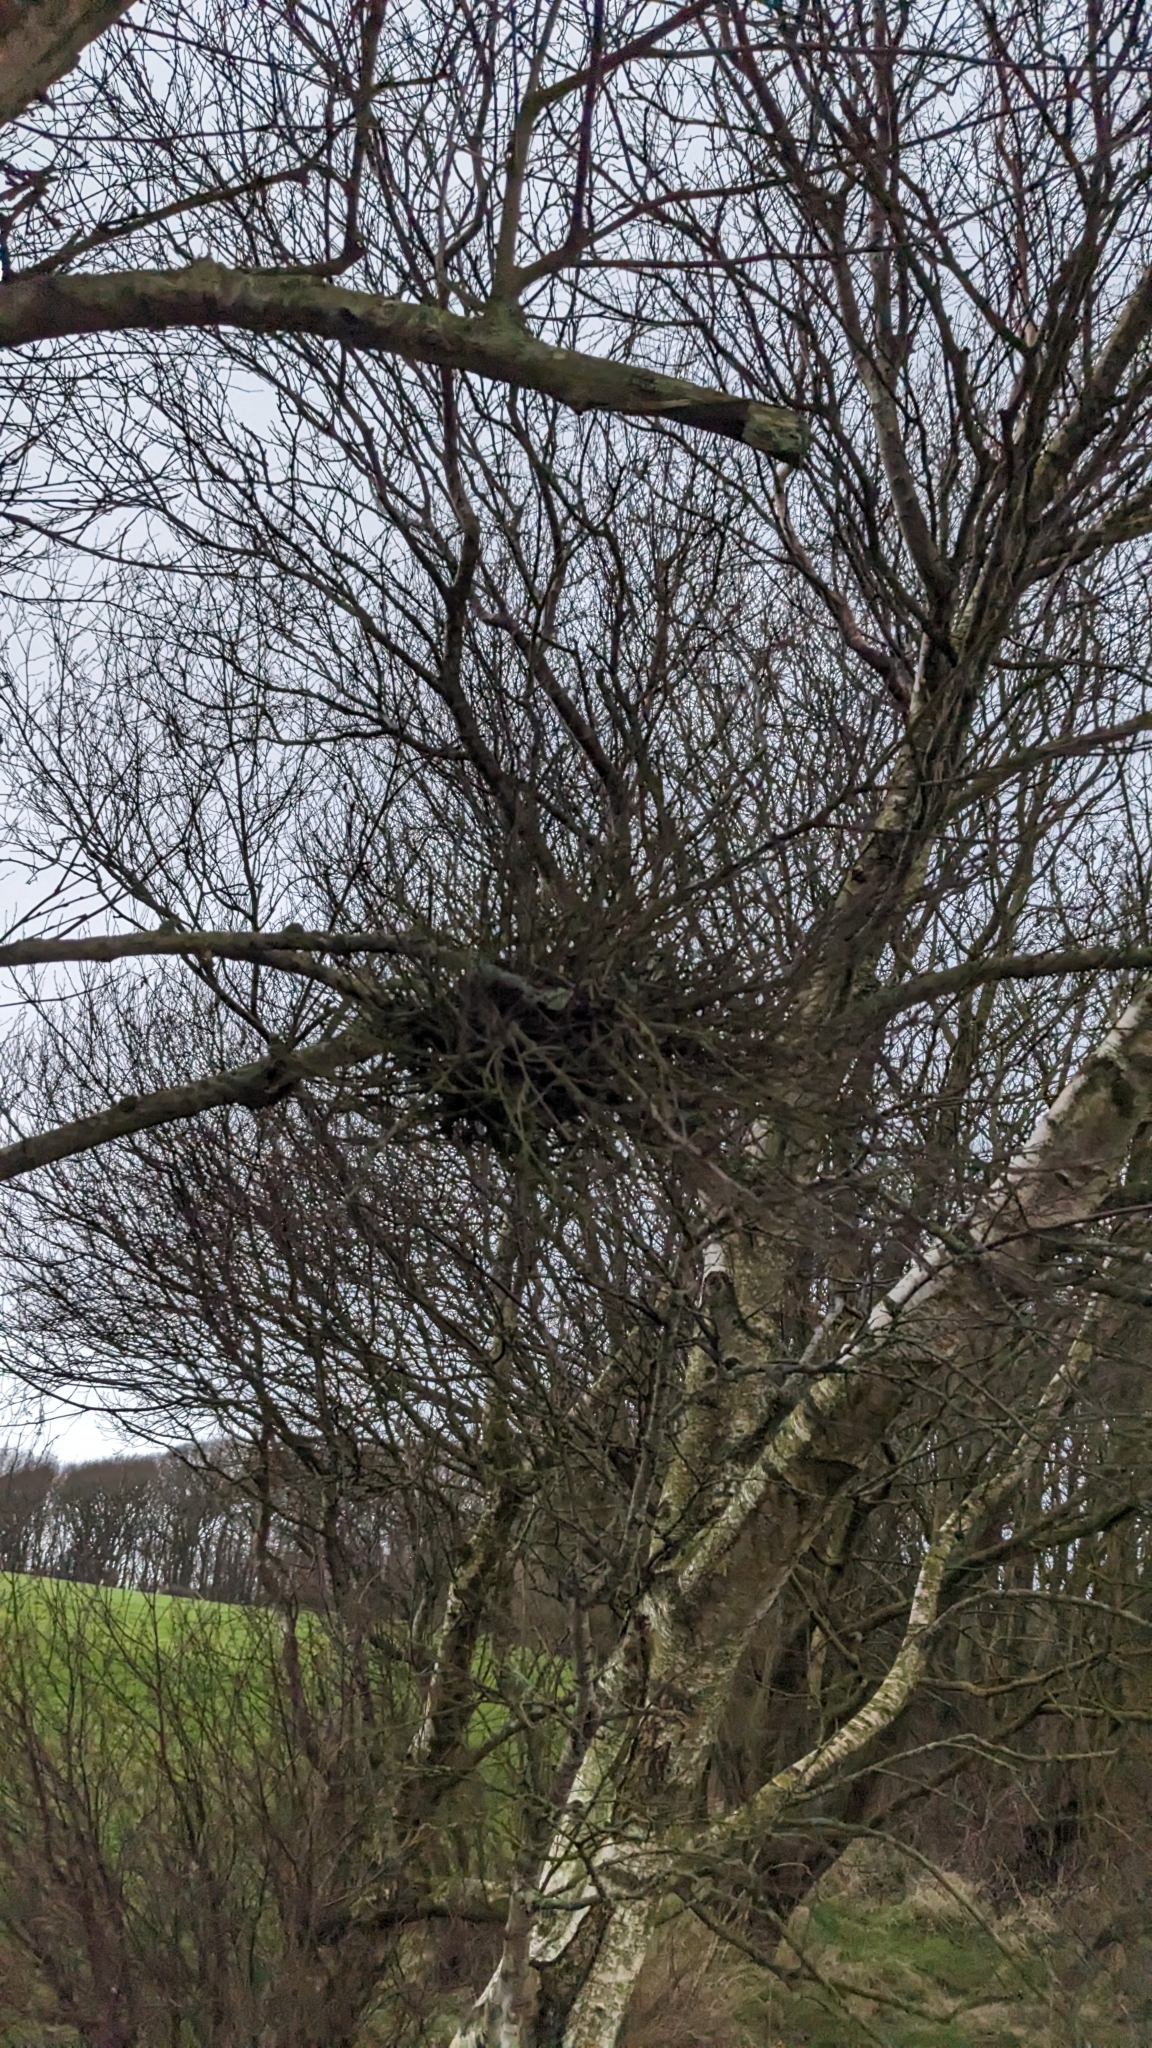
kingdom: Fungi
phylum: Ascomycota
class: Taphrinomycetes
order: Taphrinales
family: Taphrinaceae
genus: Taphrina
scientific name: Taphrina betulina
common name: Birch besom
